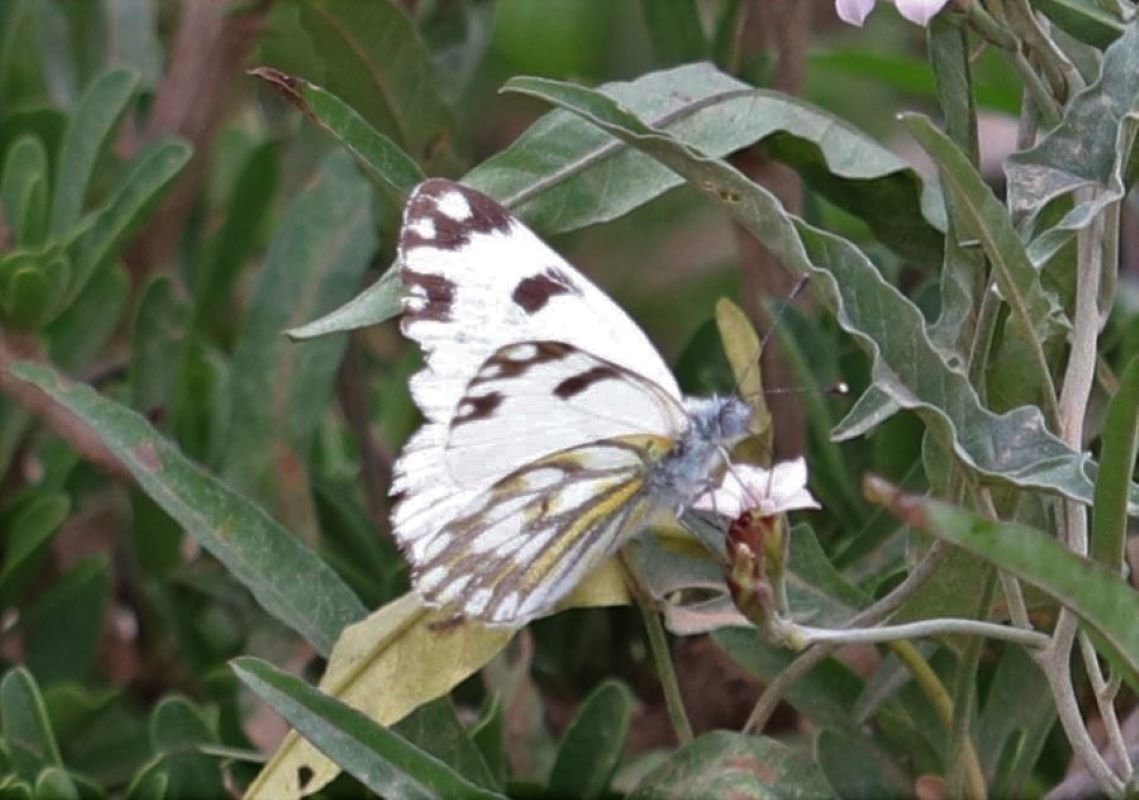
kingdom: Animalia
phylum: Arthropoda
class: Insecta
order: Lepidoptera
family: Pieridae
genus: Pontia
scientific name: Pontia helice
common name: Meadow white
